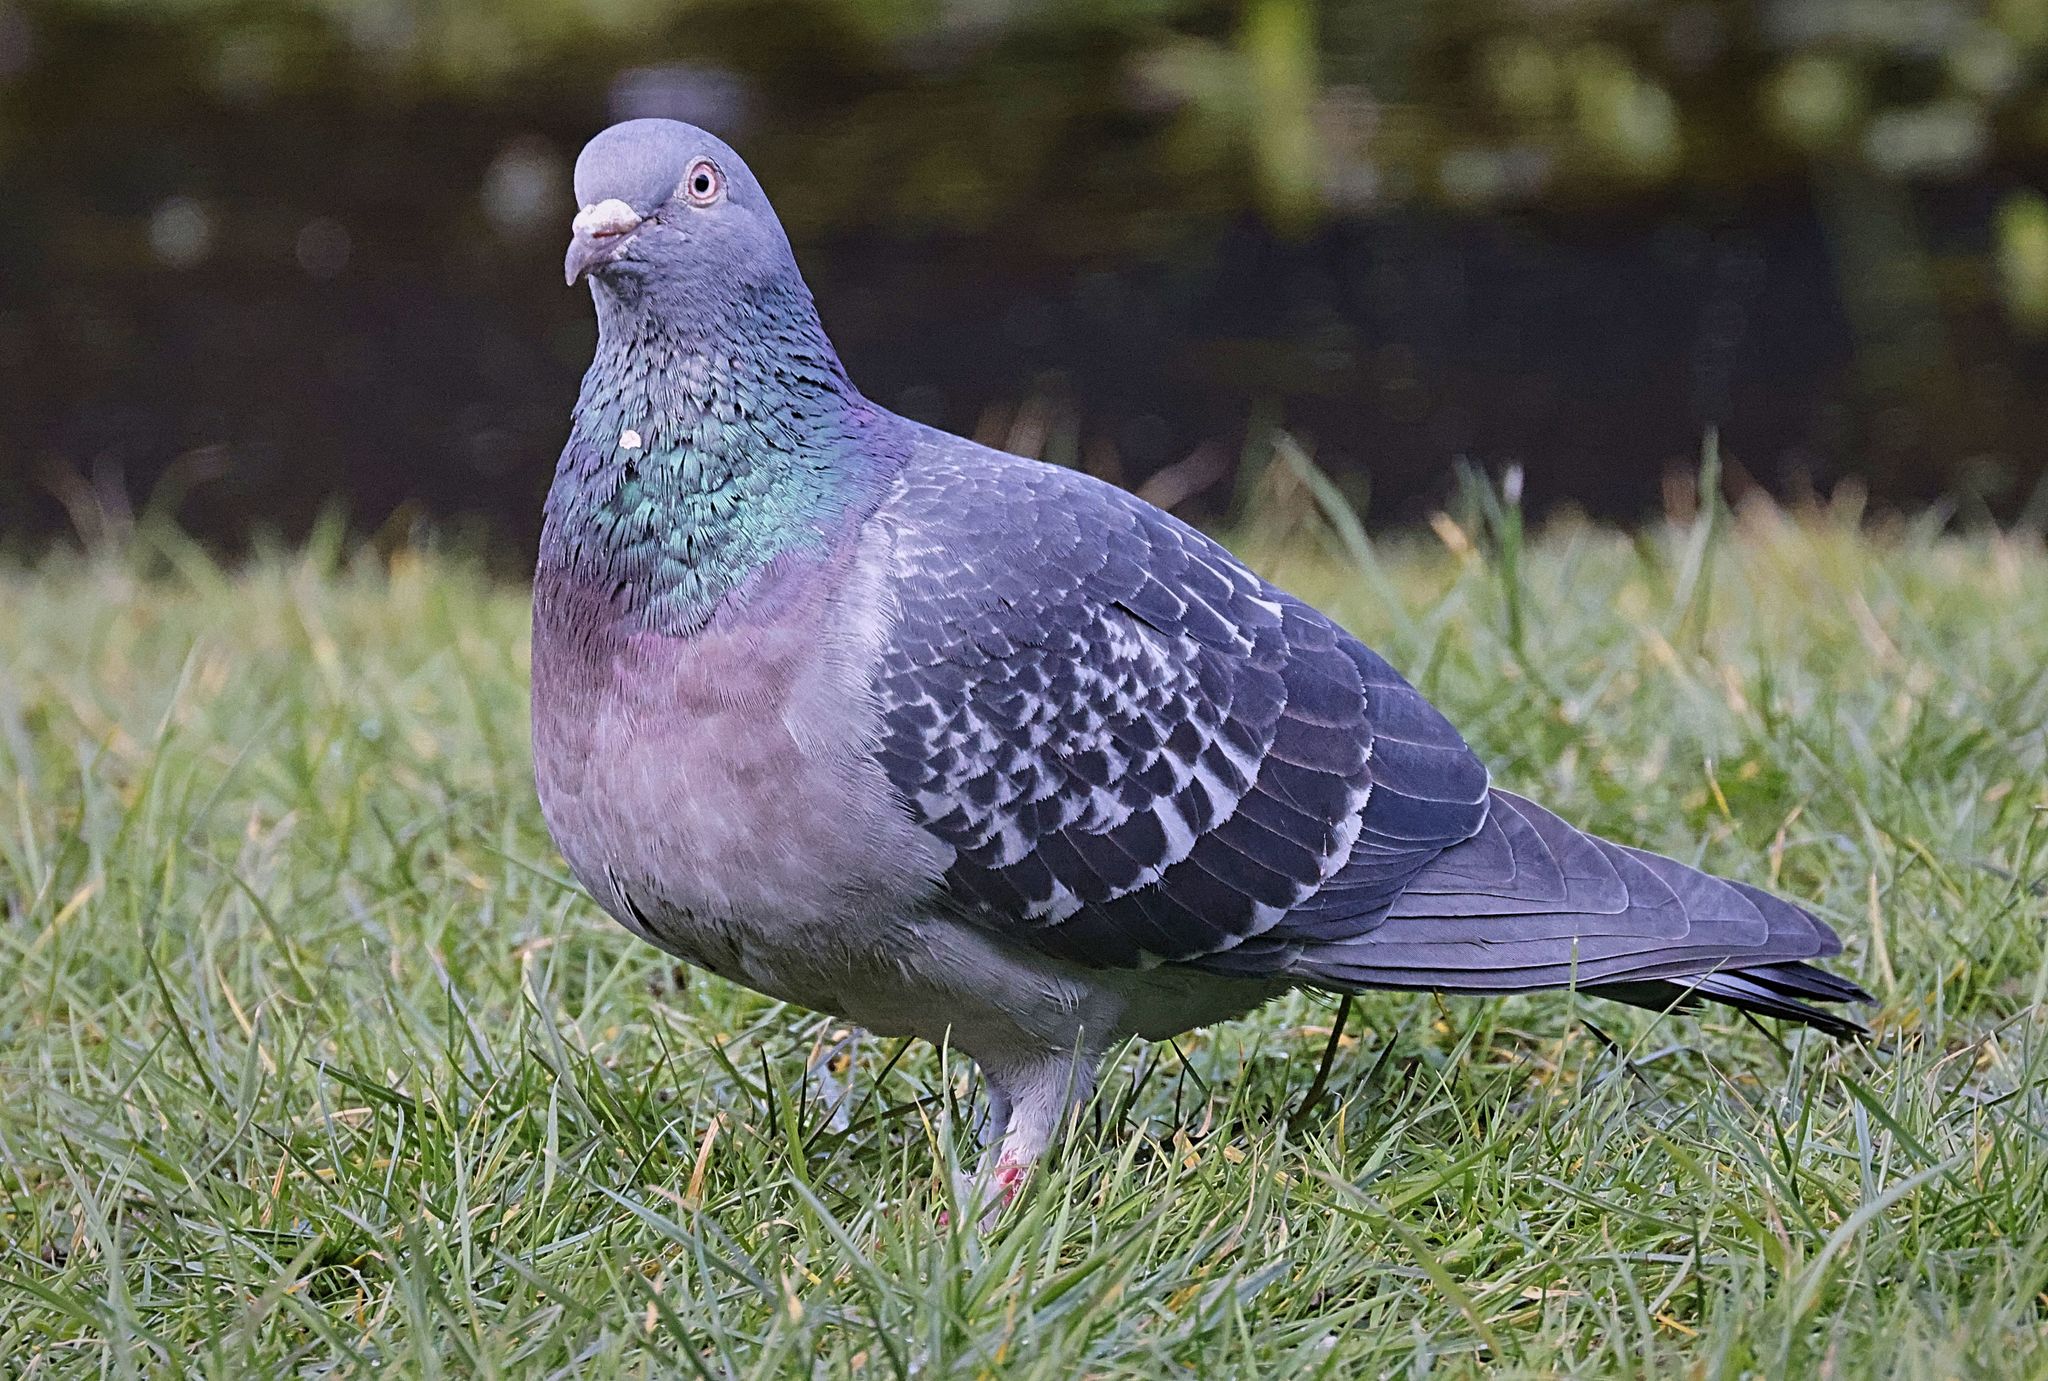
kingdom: Animalia
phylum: Chordata
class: Aves
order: Columbiformes
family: Columbidae
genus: Columba
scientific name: Columba livia
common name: Rock pigeon
